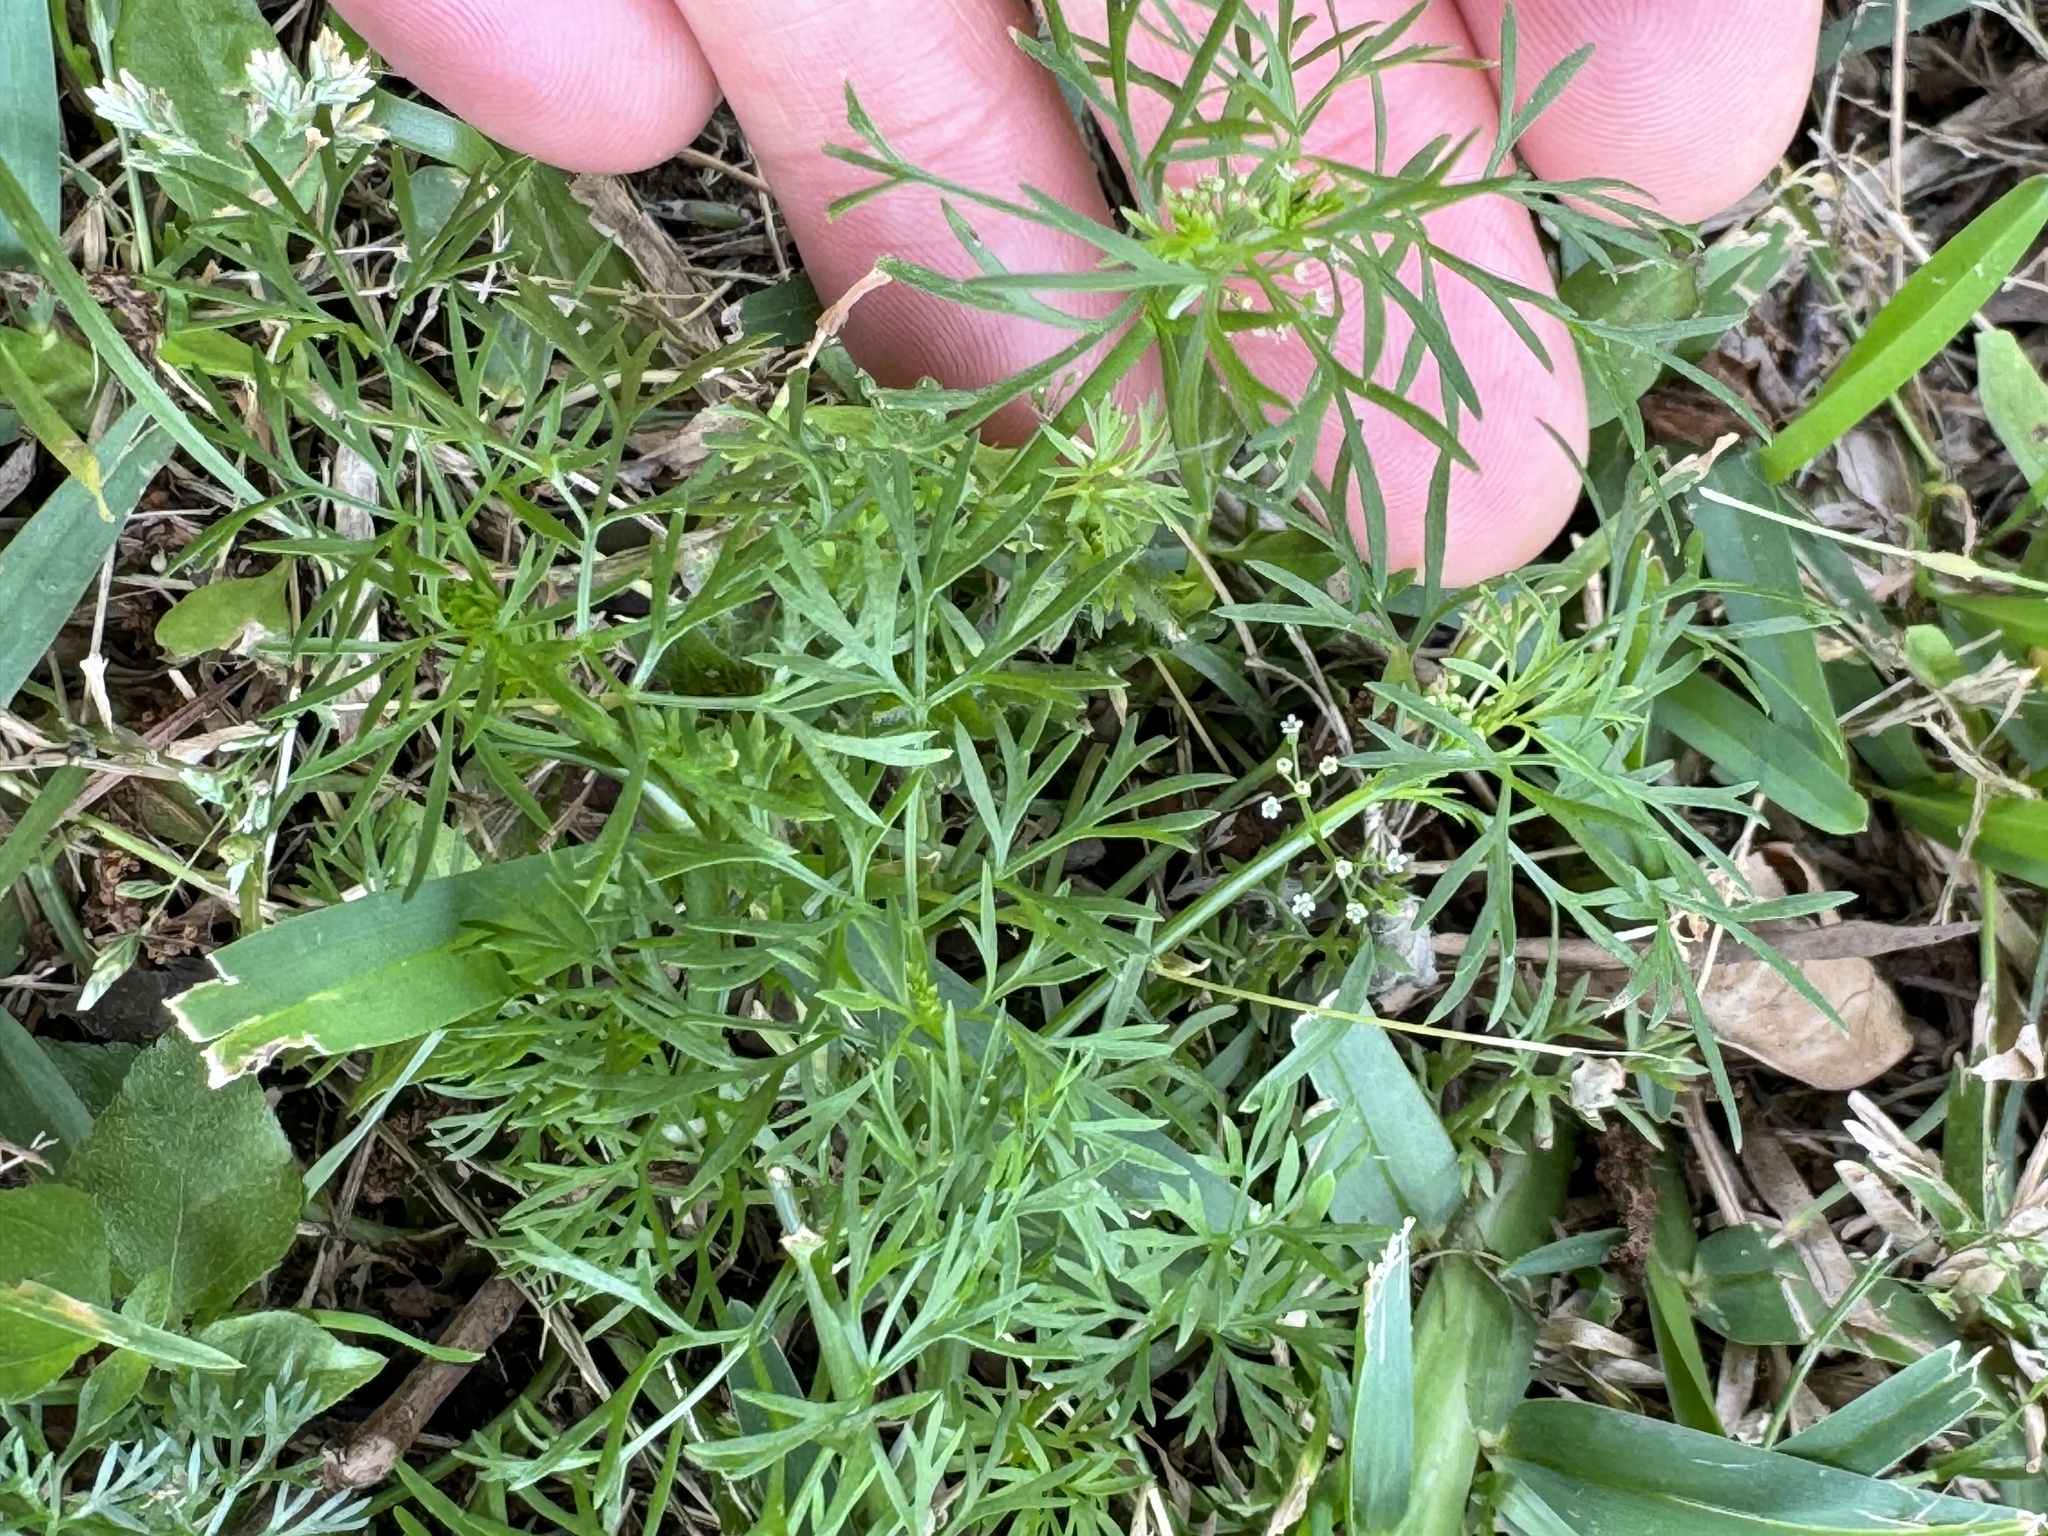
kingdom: Plantae
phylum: Tracheophyta
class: Magnoliopsida
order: Apiales
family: Apiaceae
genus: Cyclospermum
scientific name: Cyclospermum leptophyllum
